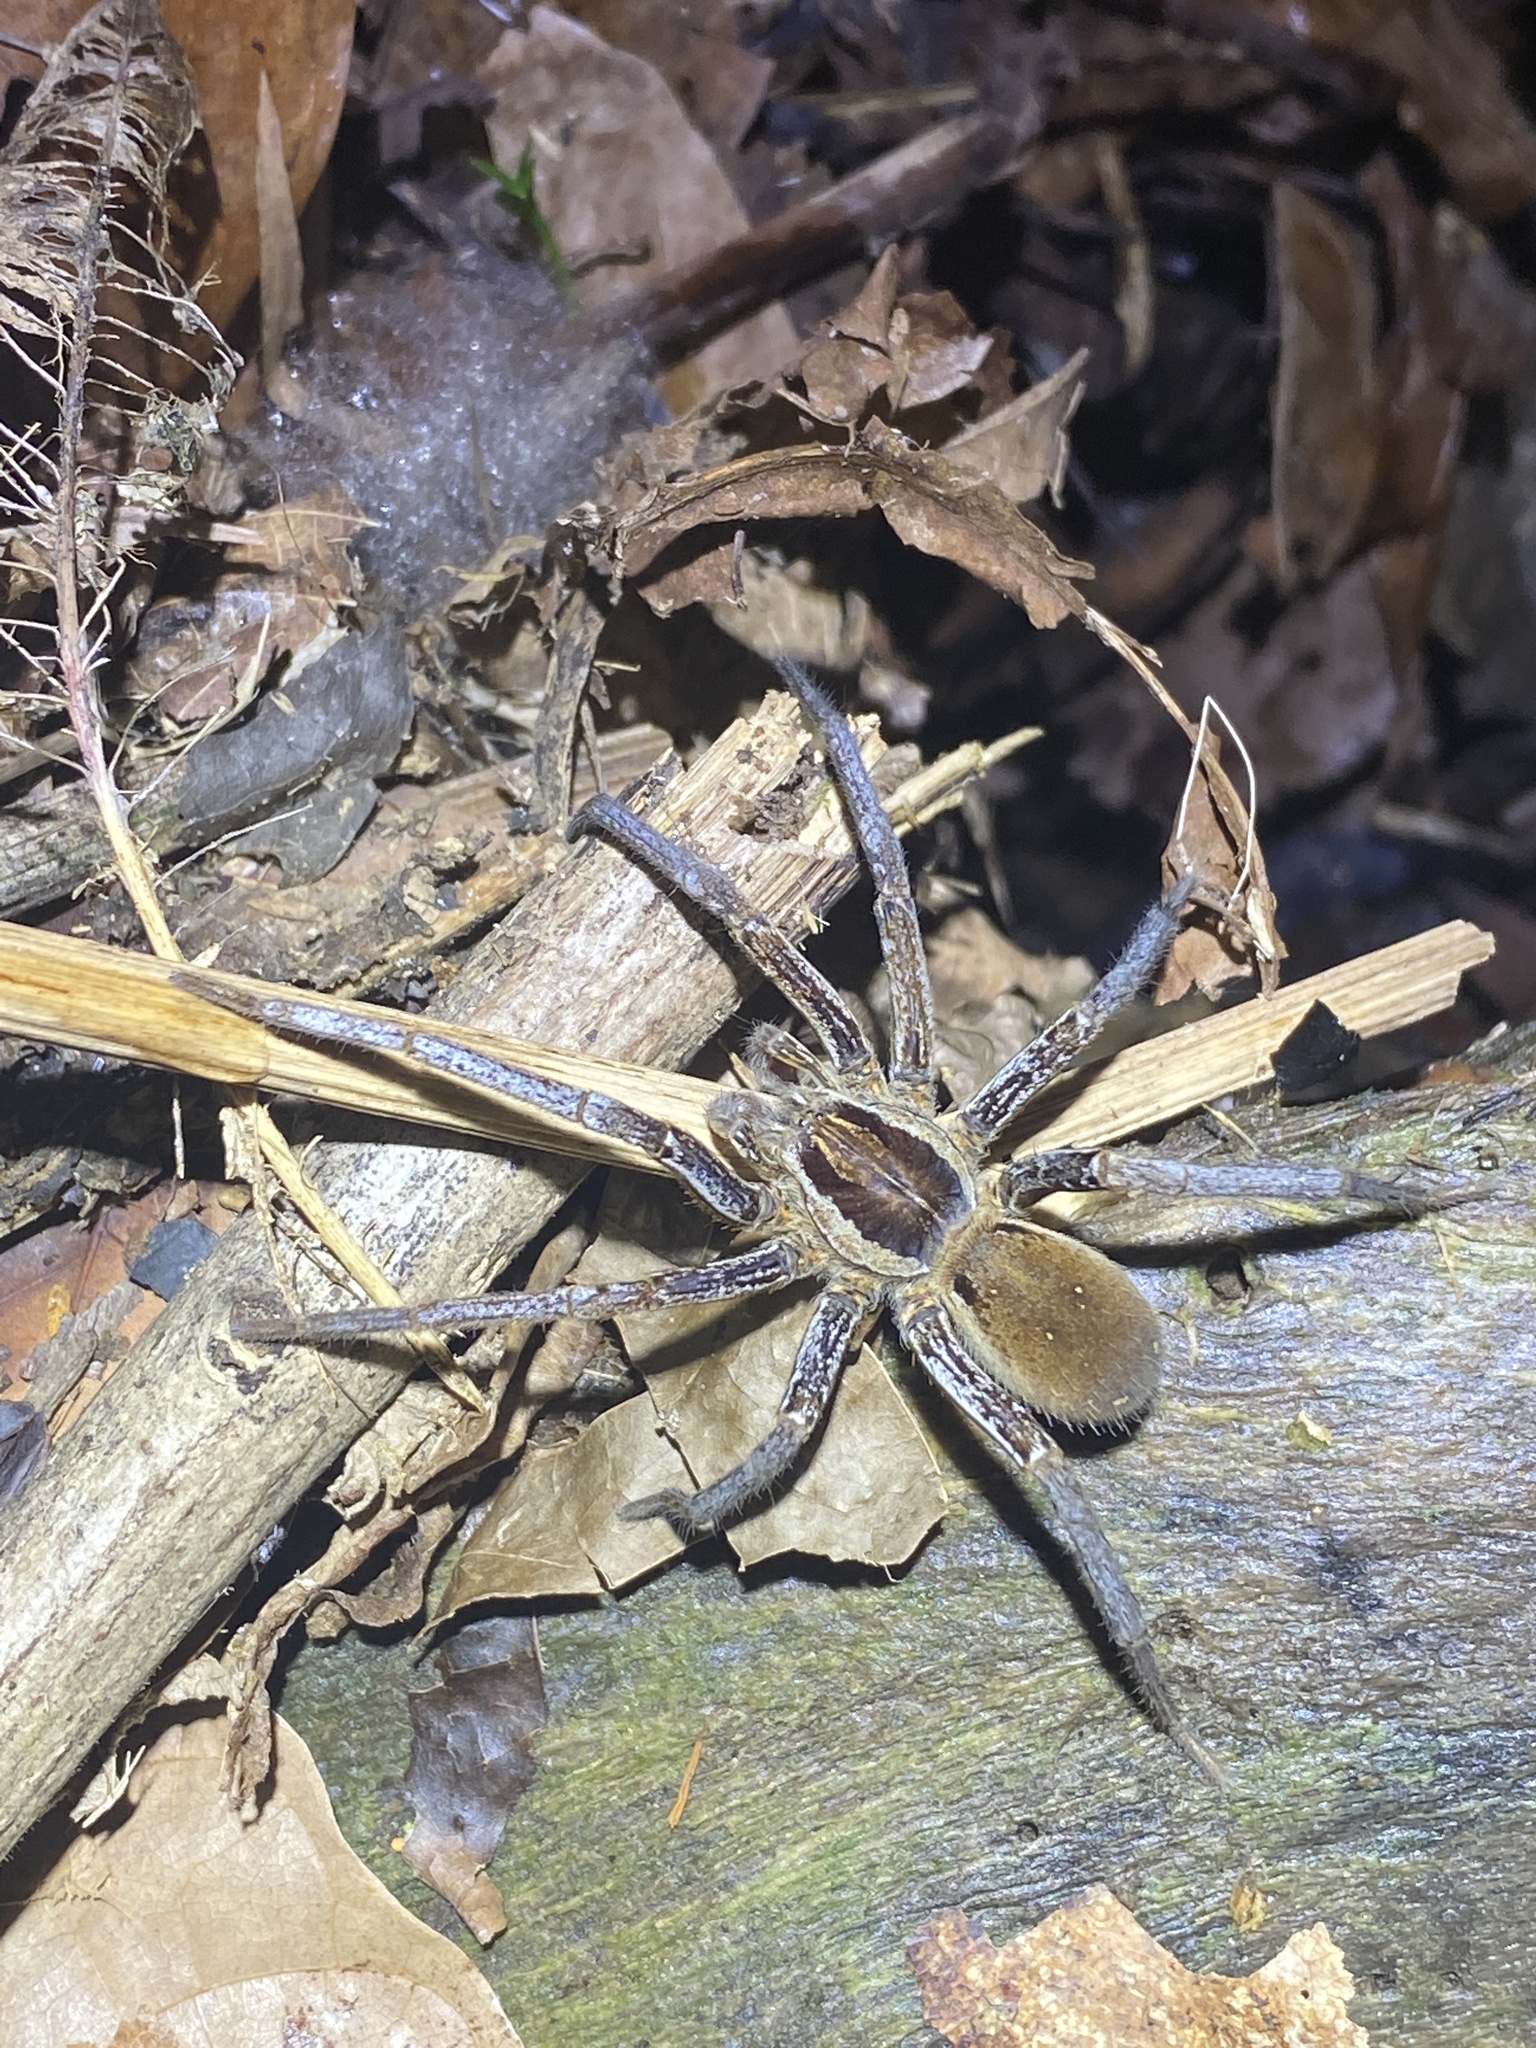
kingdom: Animalia
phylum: Arthropoda
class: Arachnida
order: Araneae
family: Ctenidae
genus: Ancylometes
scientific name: Ancylometes bogotensis
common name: Wandering spiders
